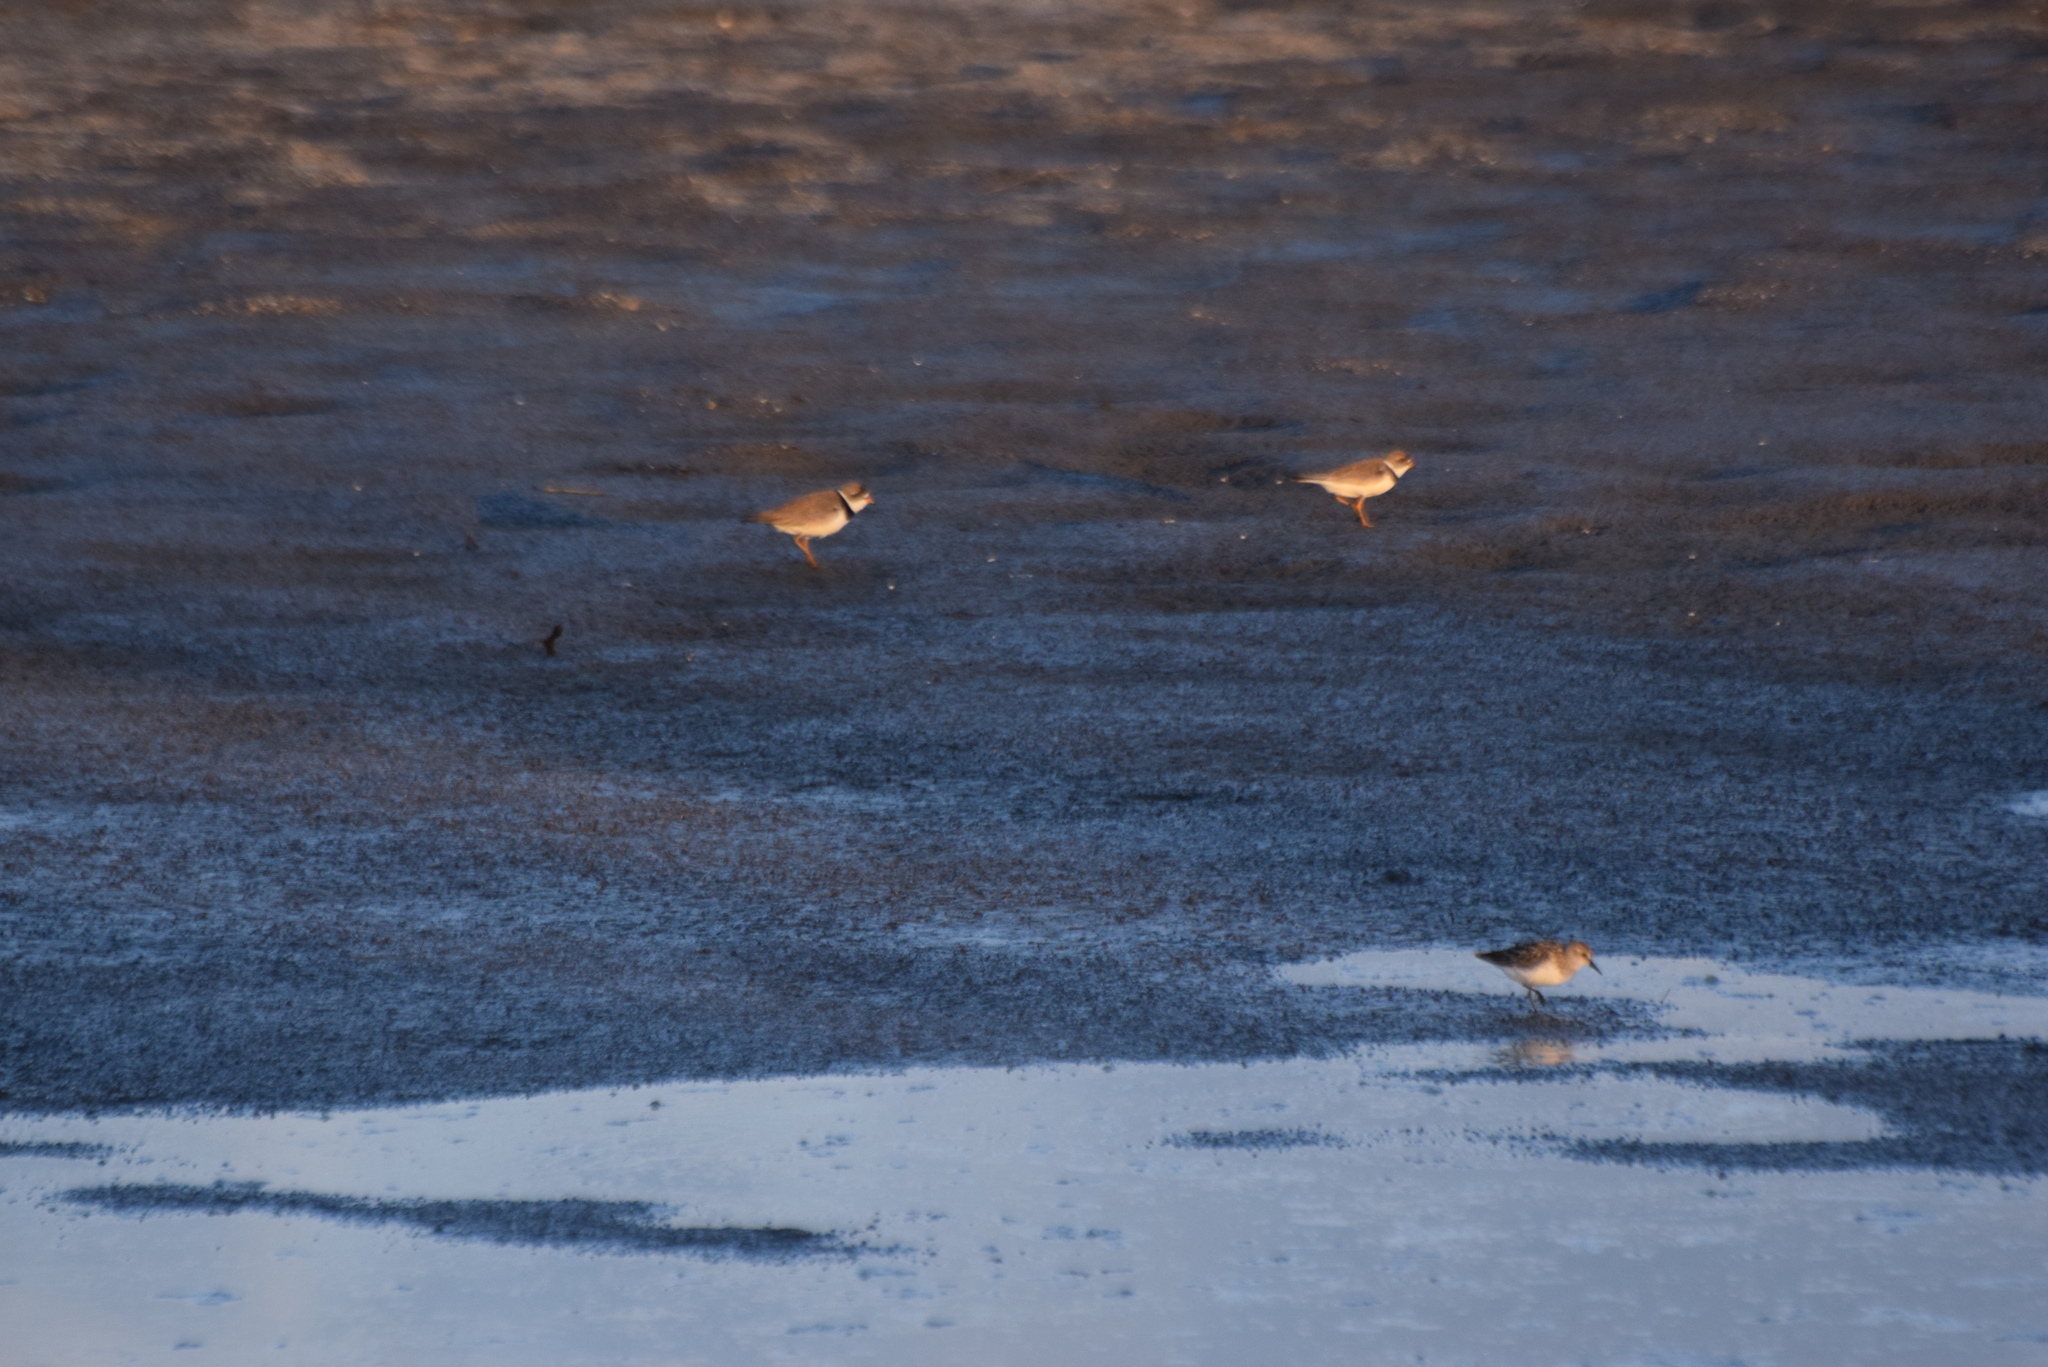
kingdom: Animalia
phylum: Chordata
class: Aves
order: Charadriiformes
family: Charadriidae
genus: Charadrius
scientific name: Charadrius semipalmatus
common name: Semipalmated plover
